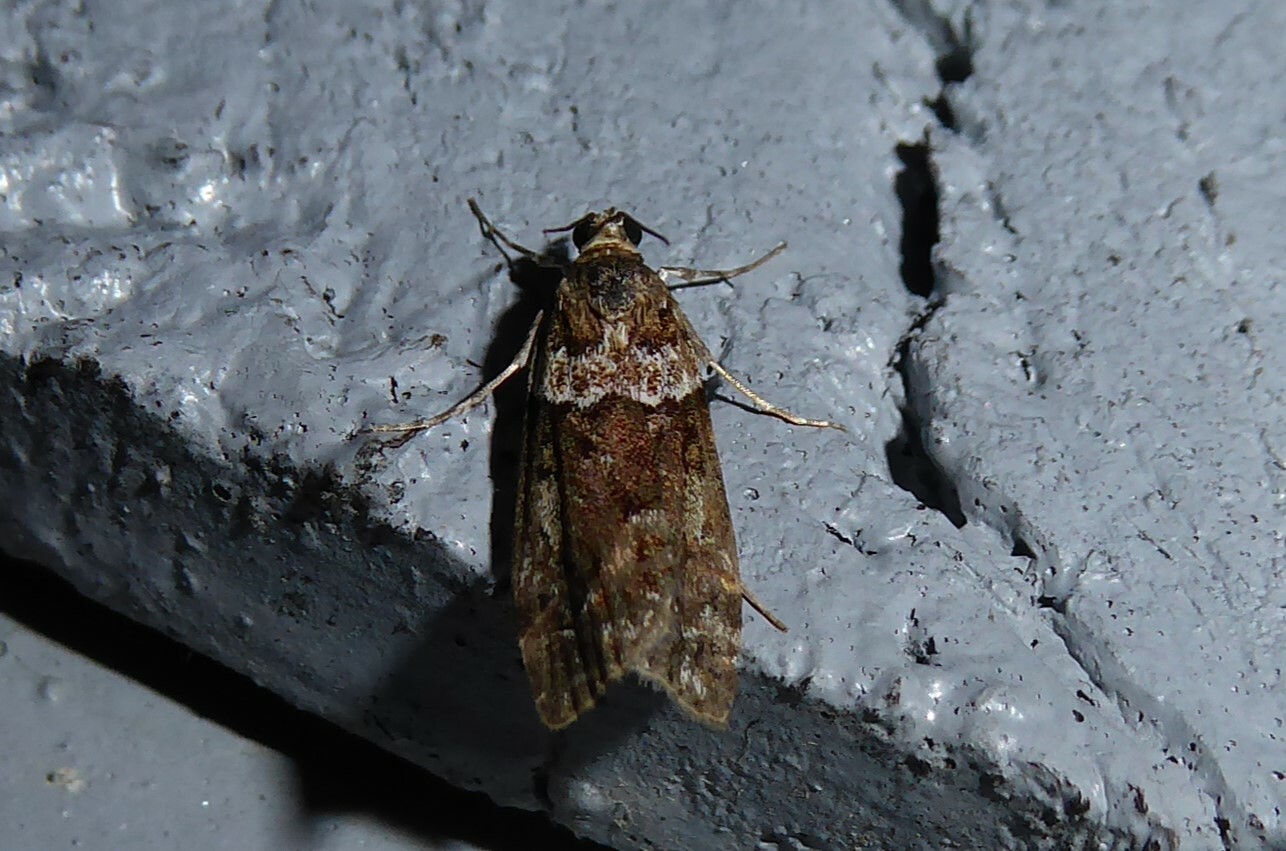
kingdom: Animalia
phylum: Arthropoda
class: Insecta
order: Lepidoptera
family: Crambidae
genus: Eudonia
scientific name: Eudonia submarginalis
